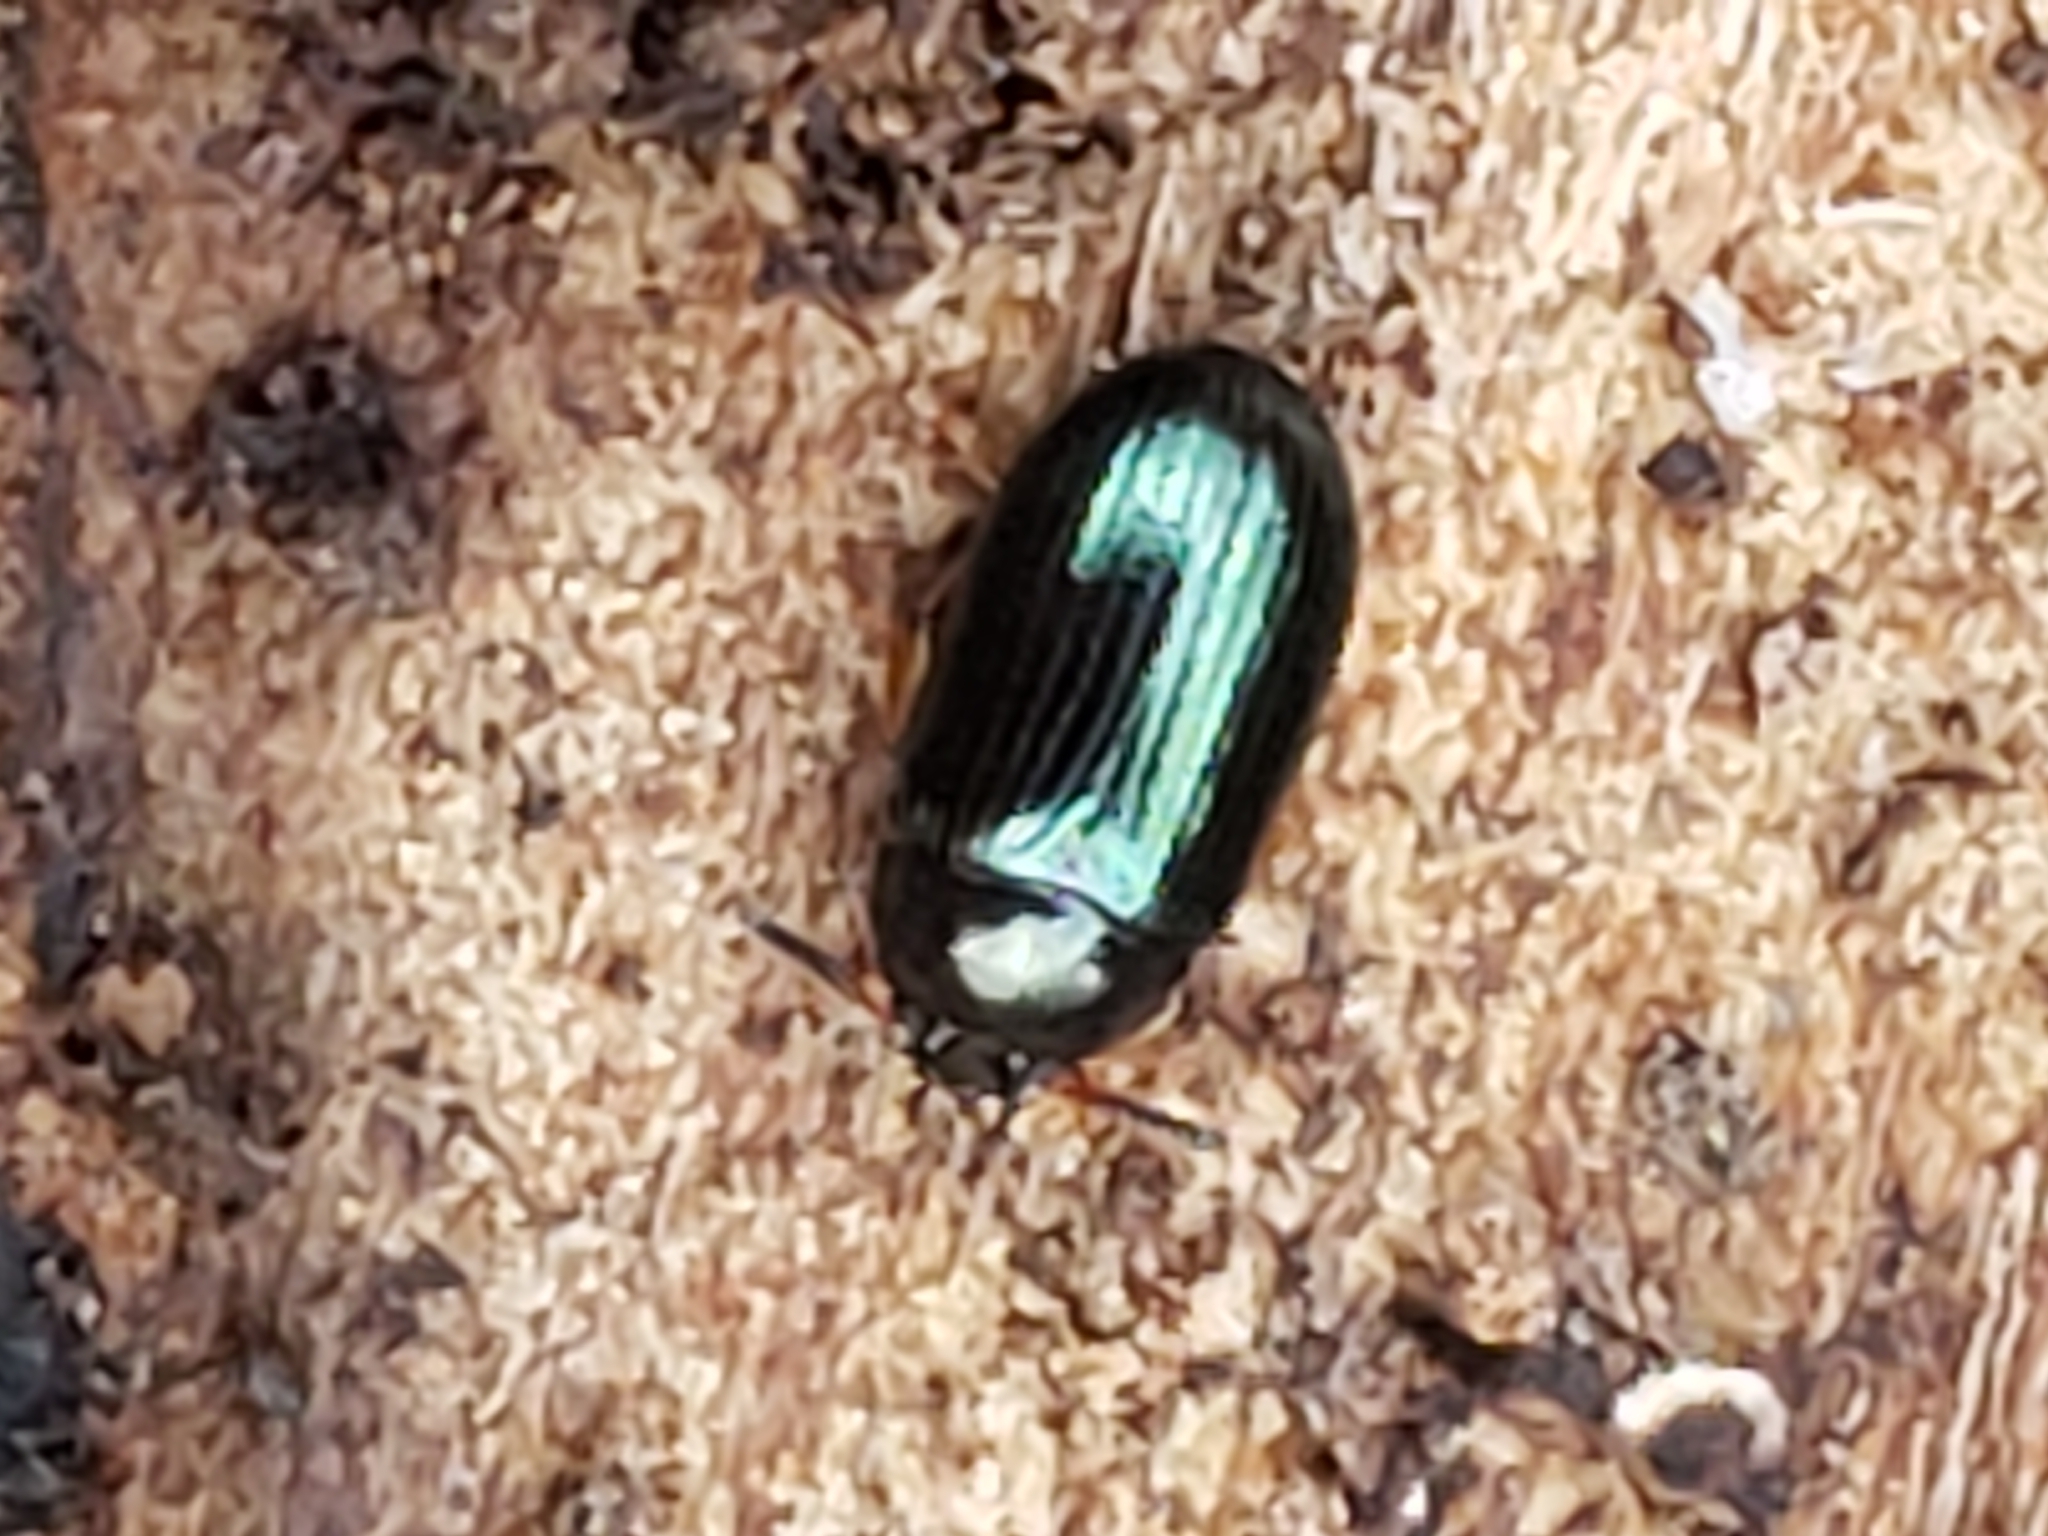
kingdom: Animalia
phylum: Arthropoda
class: Insecta
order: Coleoptera
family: Tenebrionidae
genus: Neomida
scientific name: Neomida bicornis
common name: Two-horned darkling beetle
